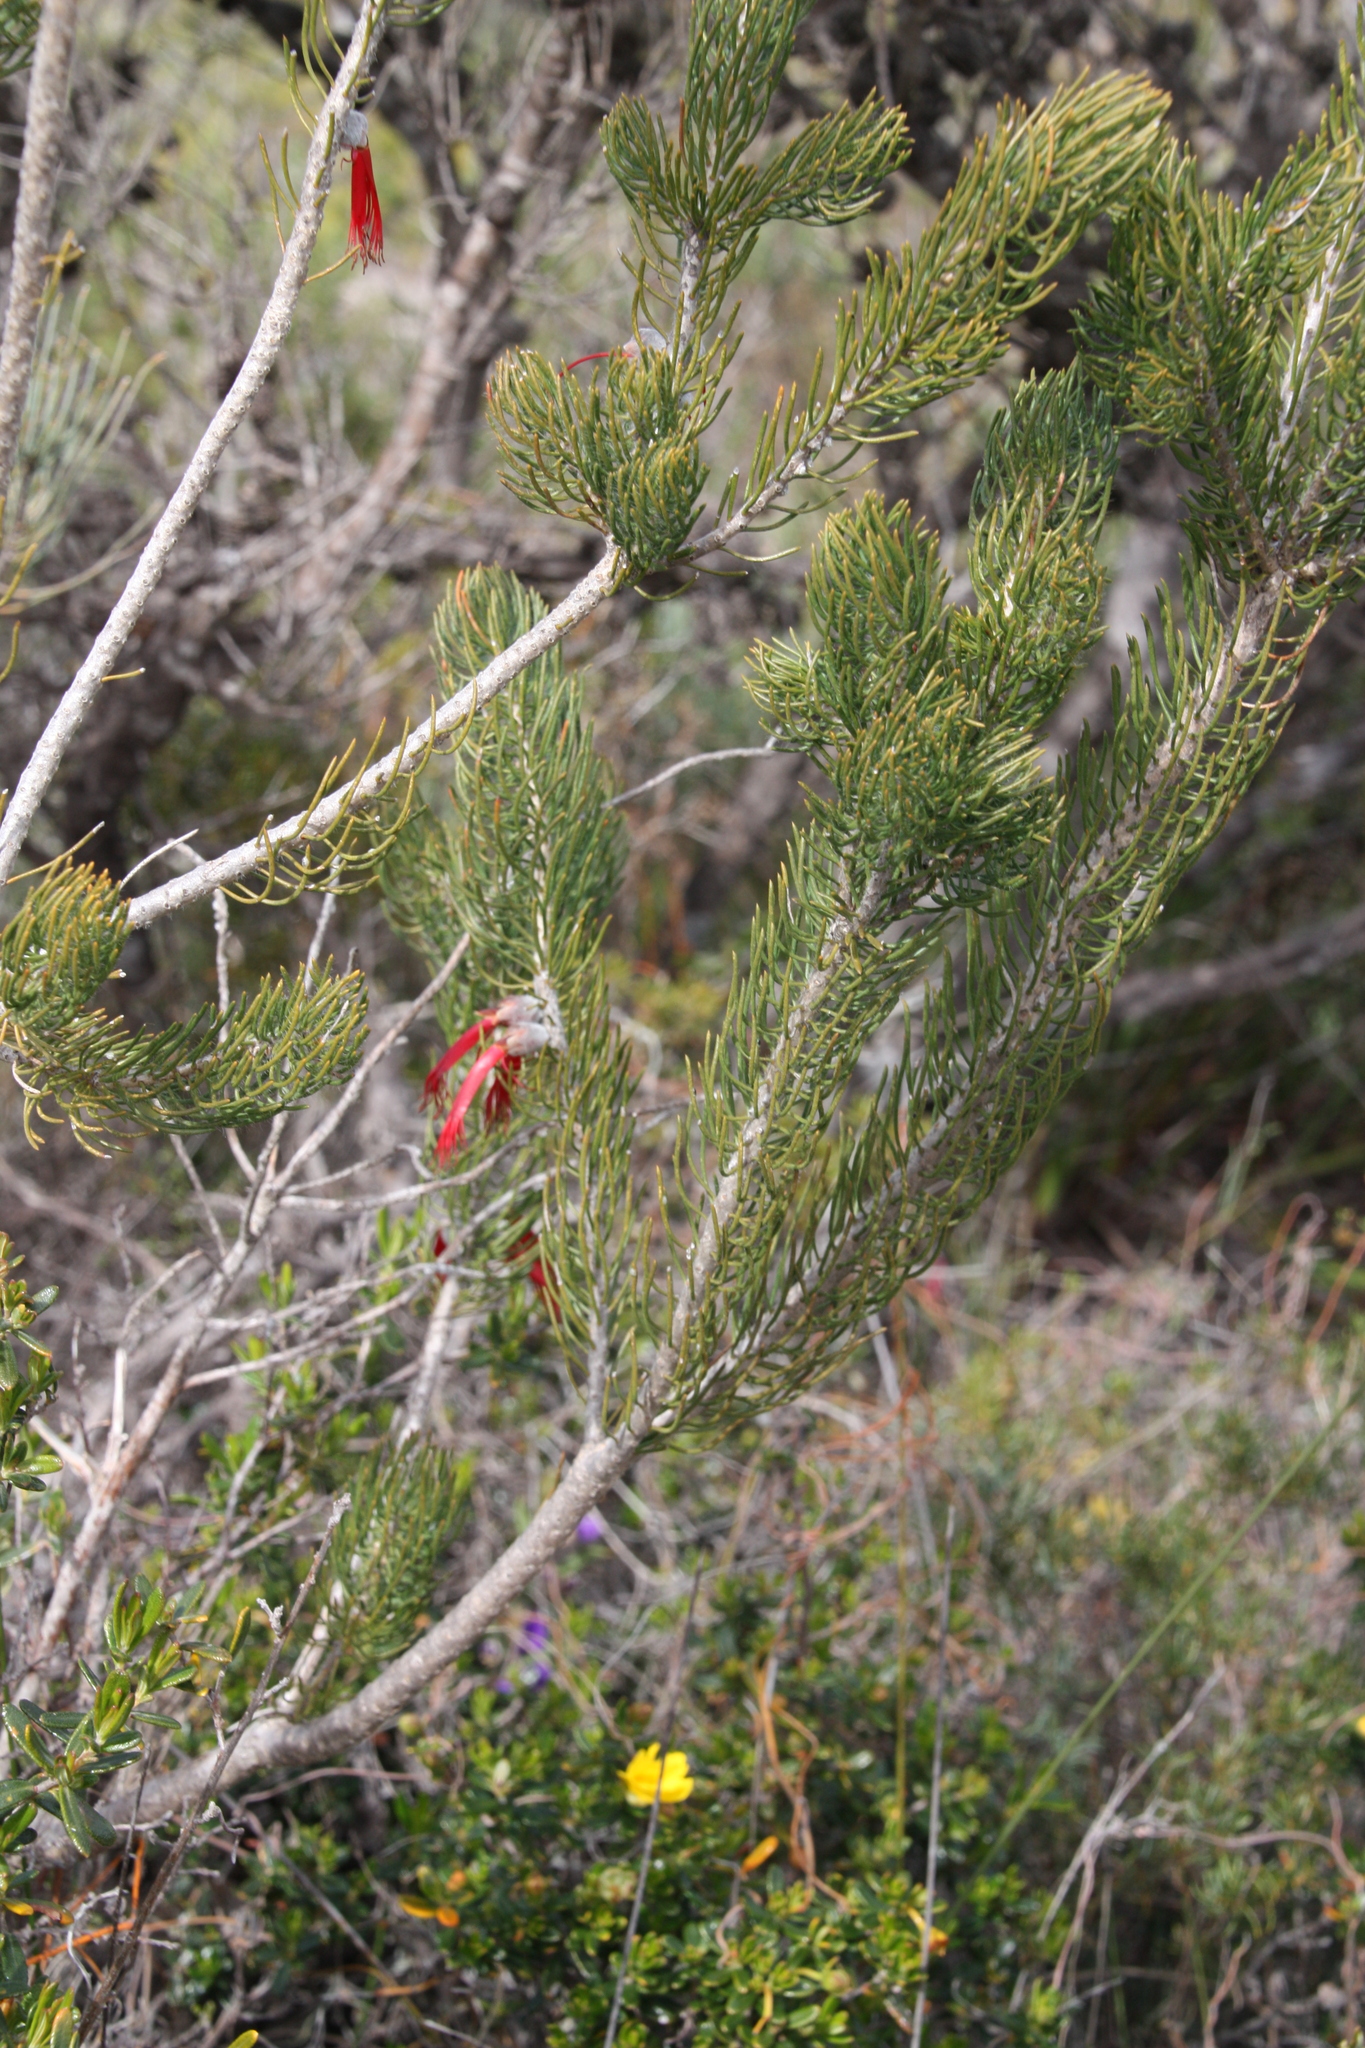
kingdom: Plantae
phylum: Tracheophyta
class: Magnoliopsida
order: Myrtales
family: Myrtaceae
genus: Melaleuca
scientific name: Melaleuca cruenta
